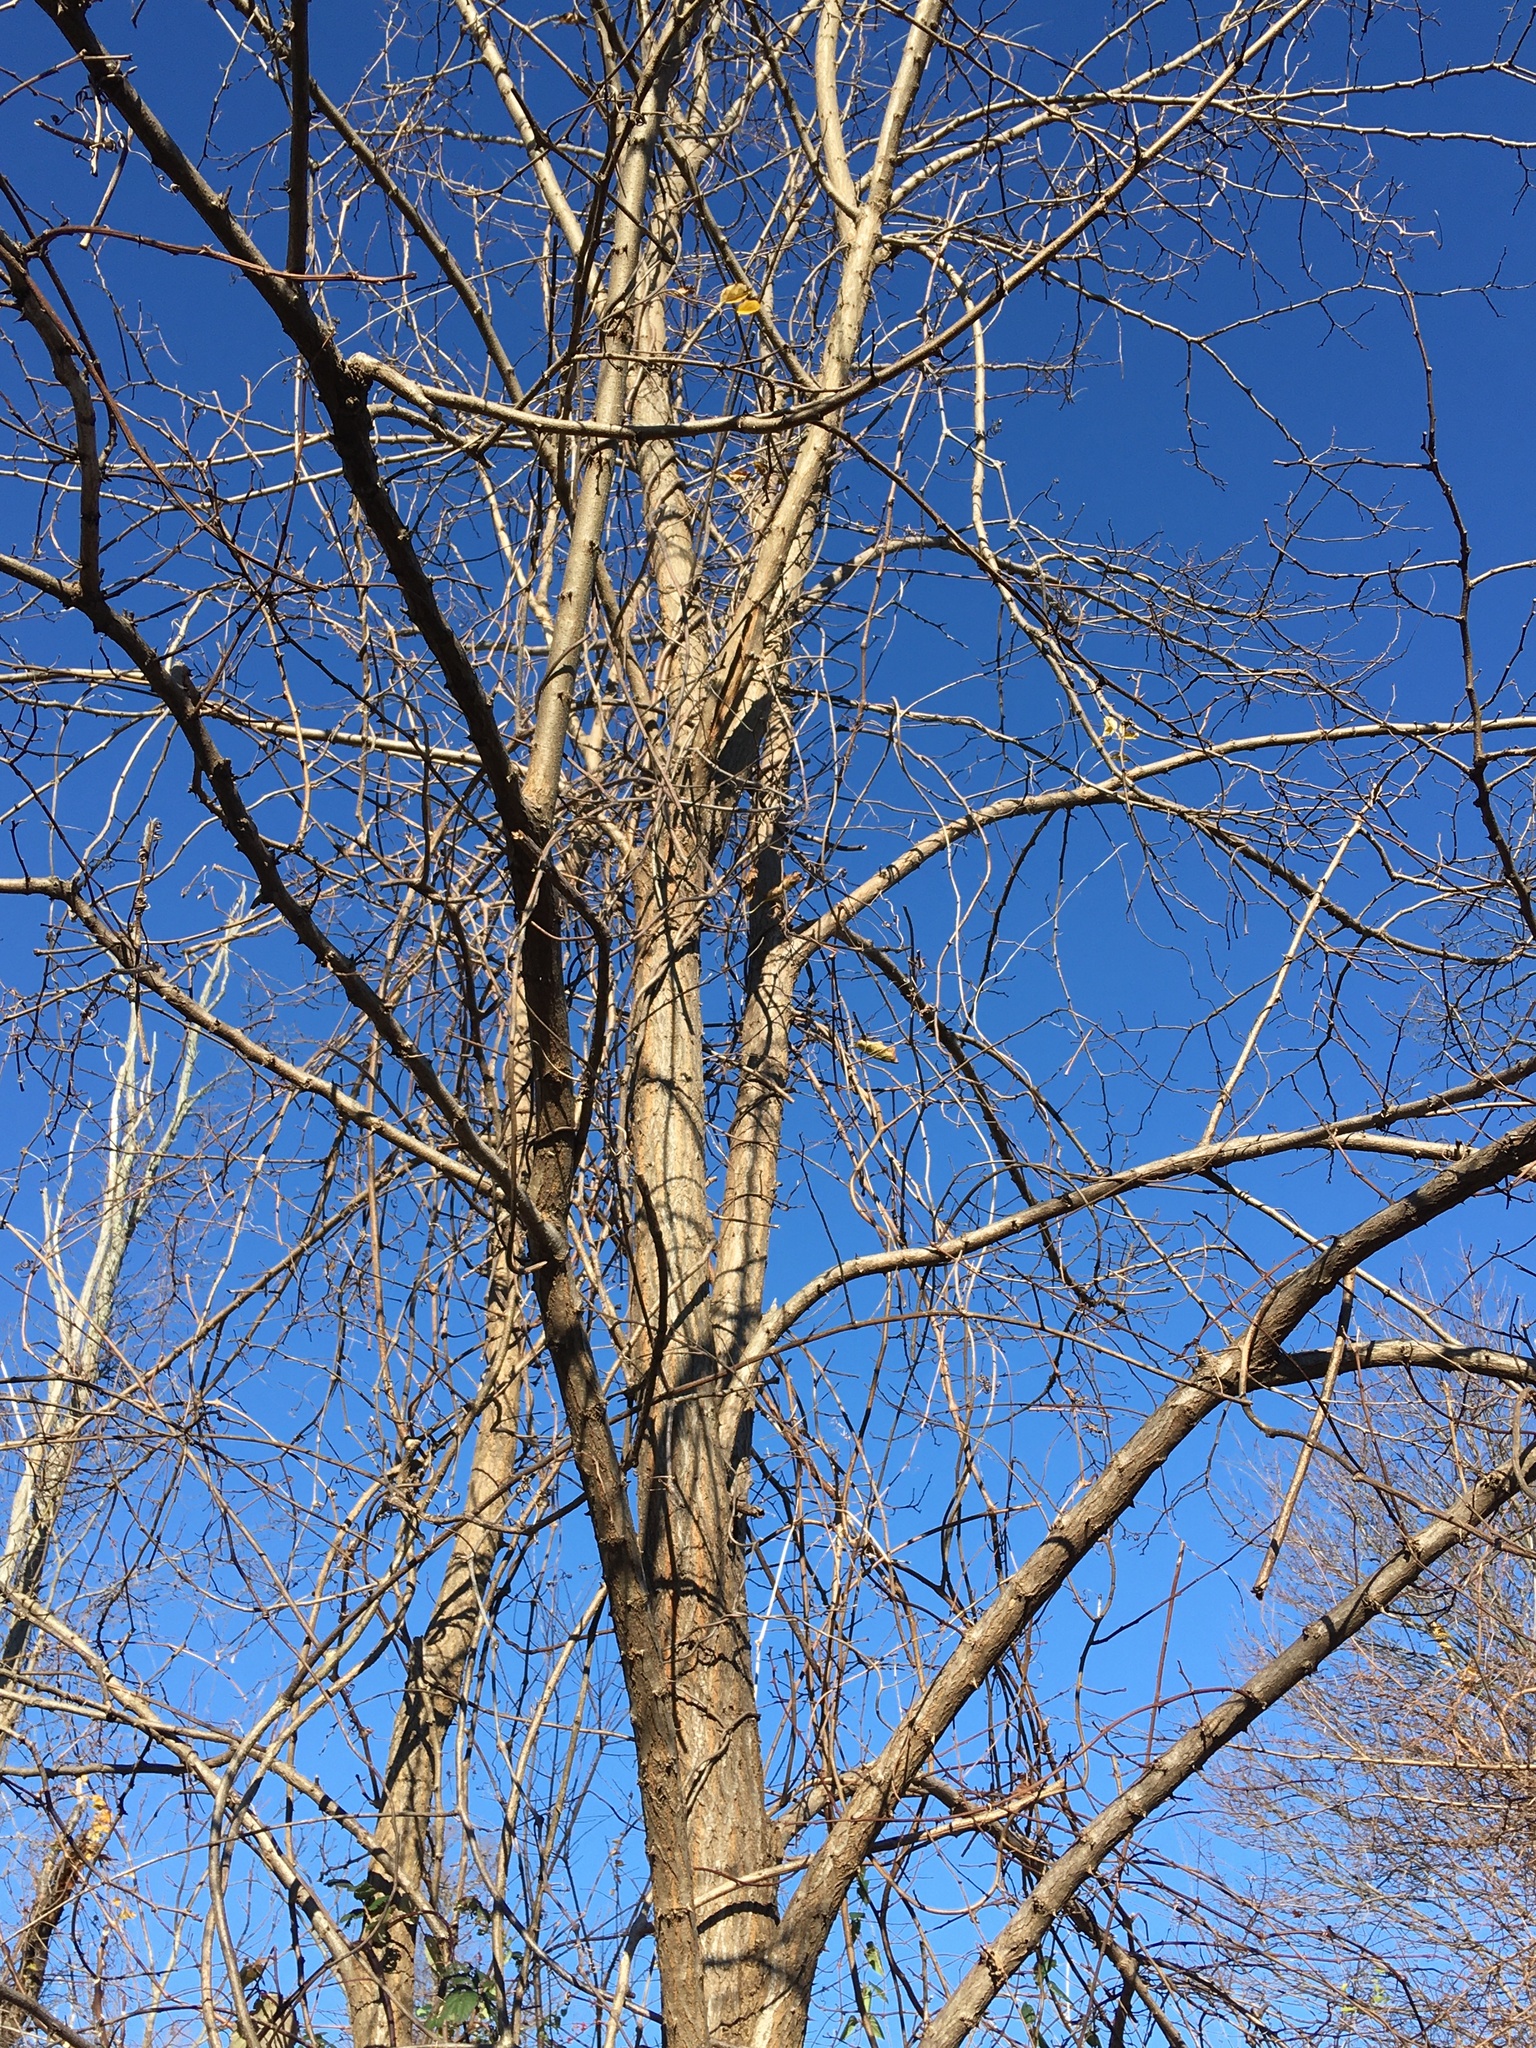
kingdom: Plantae
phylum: Tracheophyta
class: Magnoliopsida
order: Fabales
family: Fabaceae
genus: Robinia
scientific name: Robinia pseudoacacia
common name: Black locust
